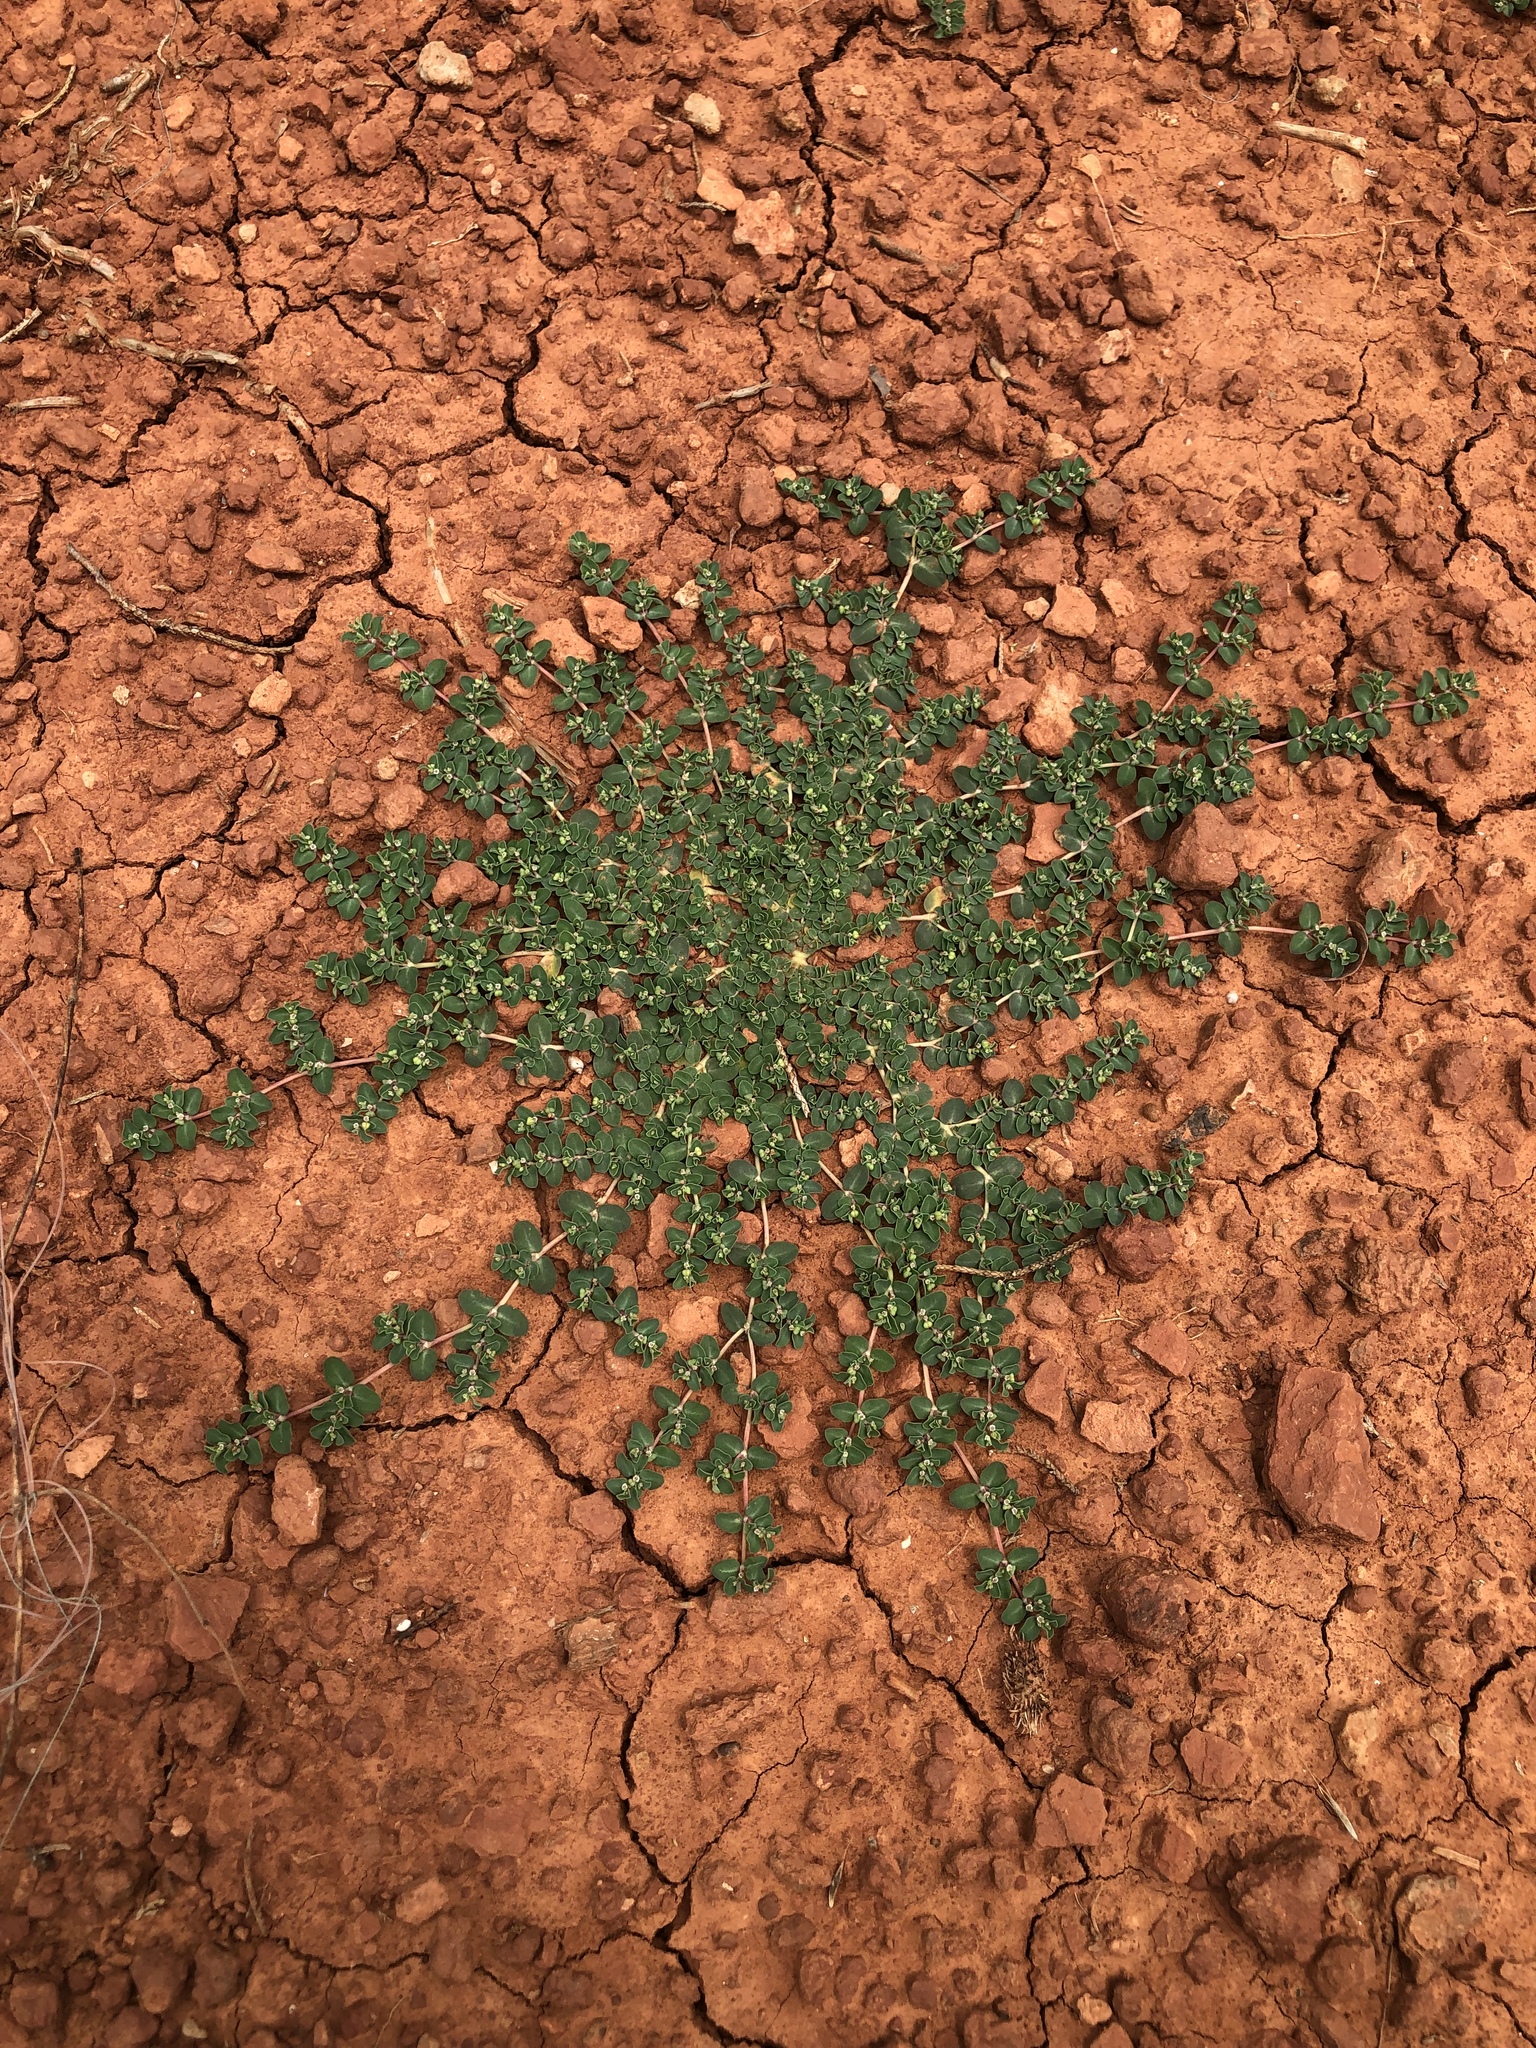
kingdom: Plantae
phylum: Tracheophyta
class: Magnoliopsida
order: Malpighiales
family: Euphorbiaceae
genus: Euphorbia
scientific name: Euphorbia serpens
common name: Matted sandmat
